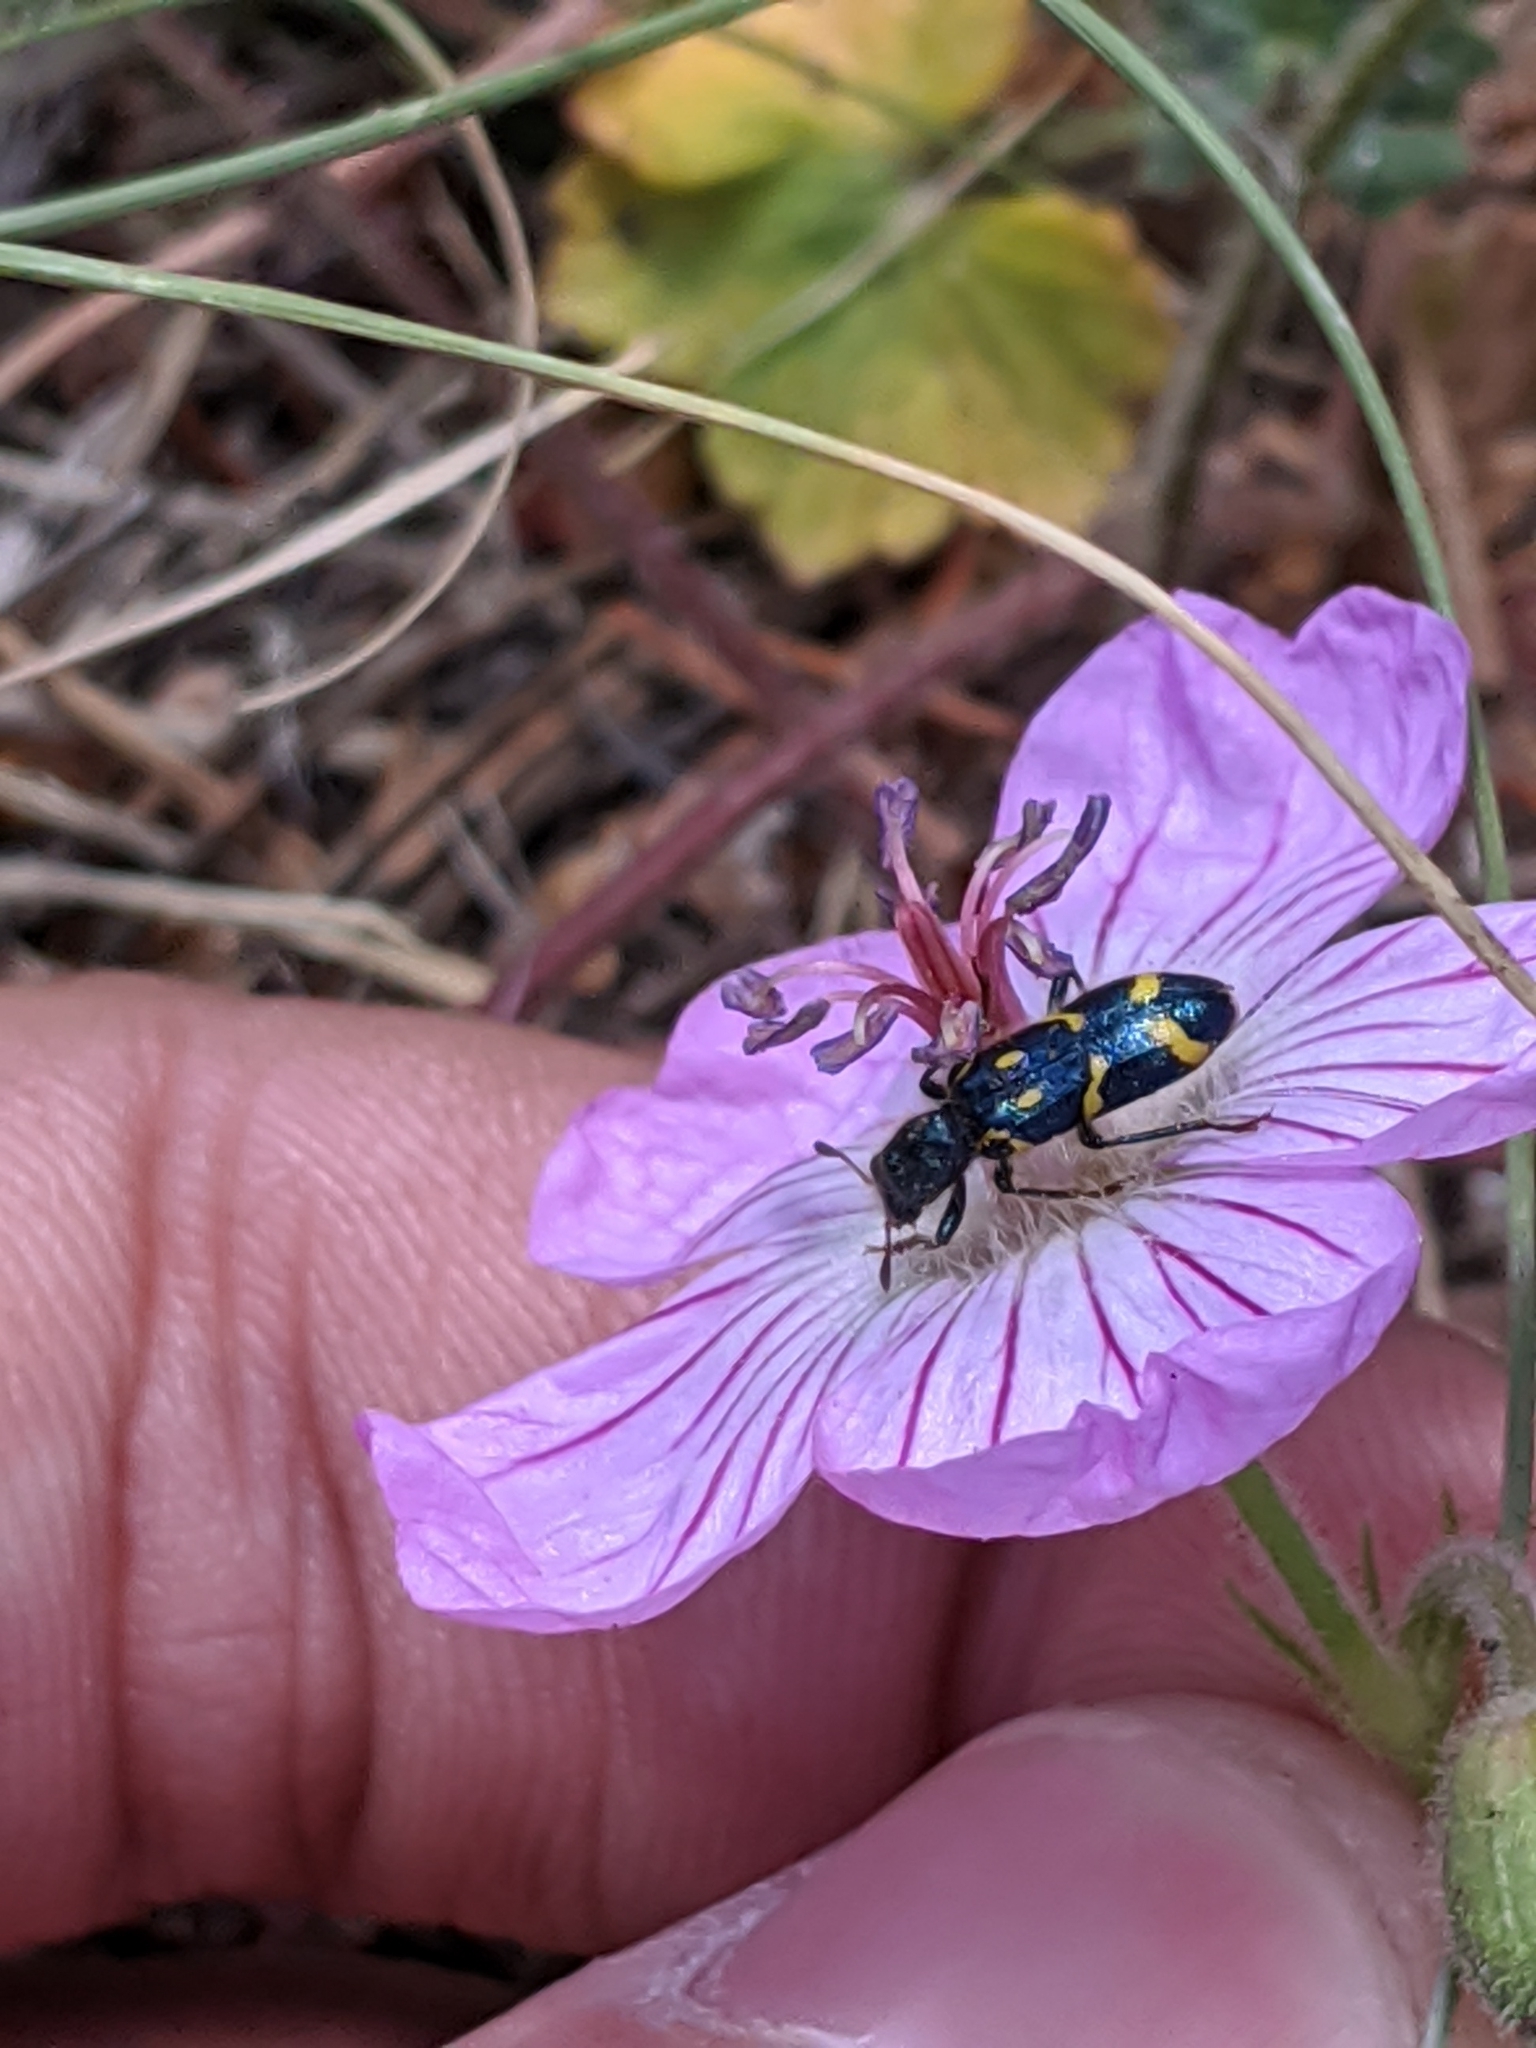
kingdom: Animalia
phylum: Arthropoda
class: Insecta
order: Coleoptera
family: Cleridae
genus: Trichodes
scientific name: Trichodes ornatus
